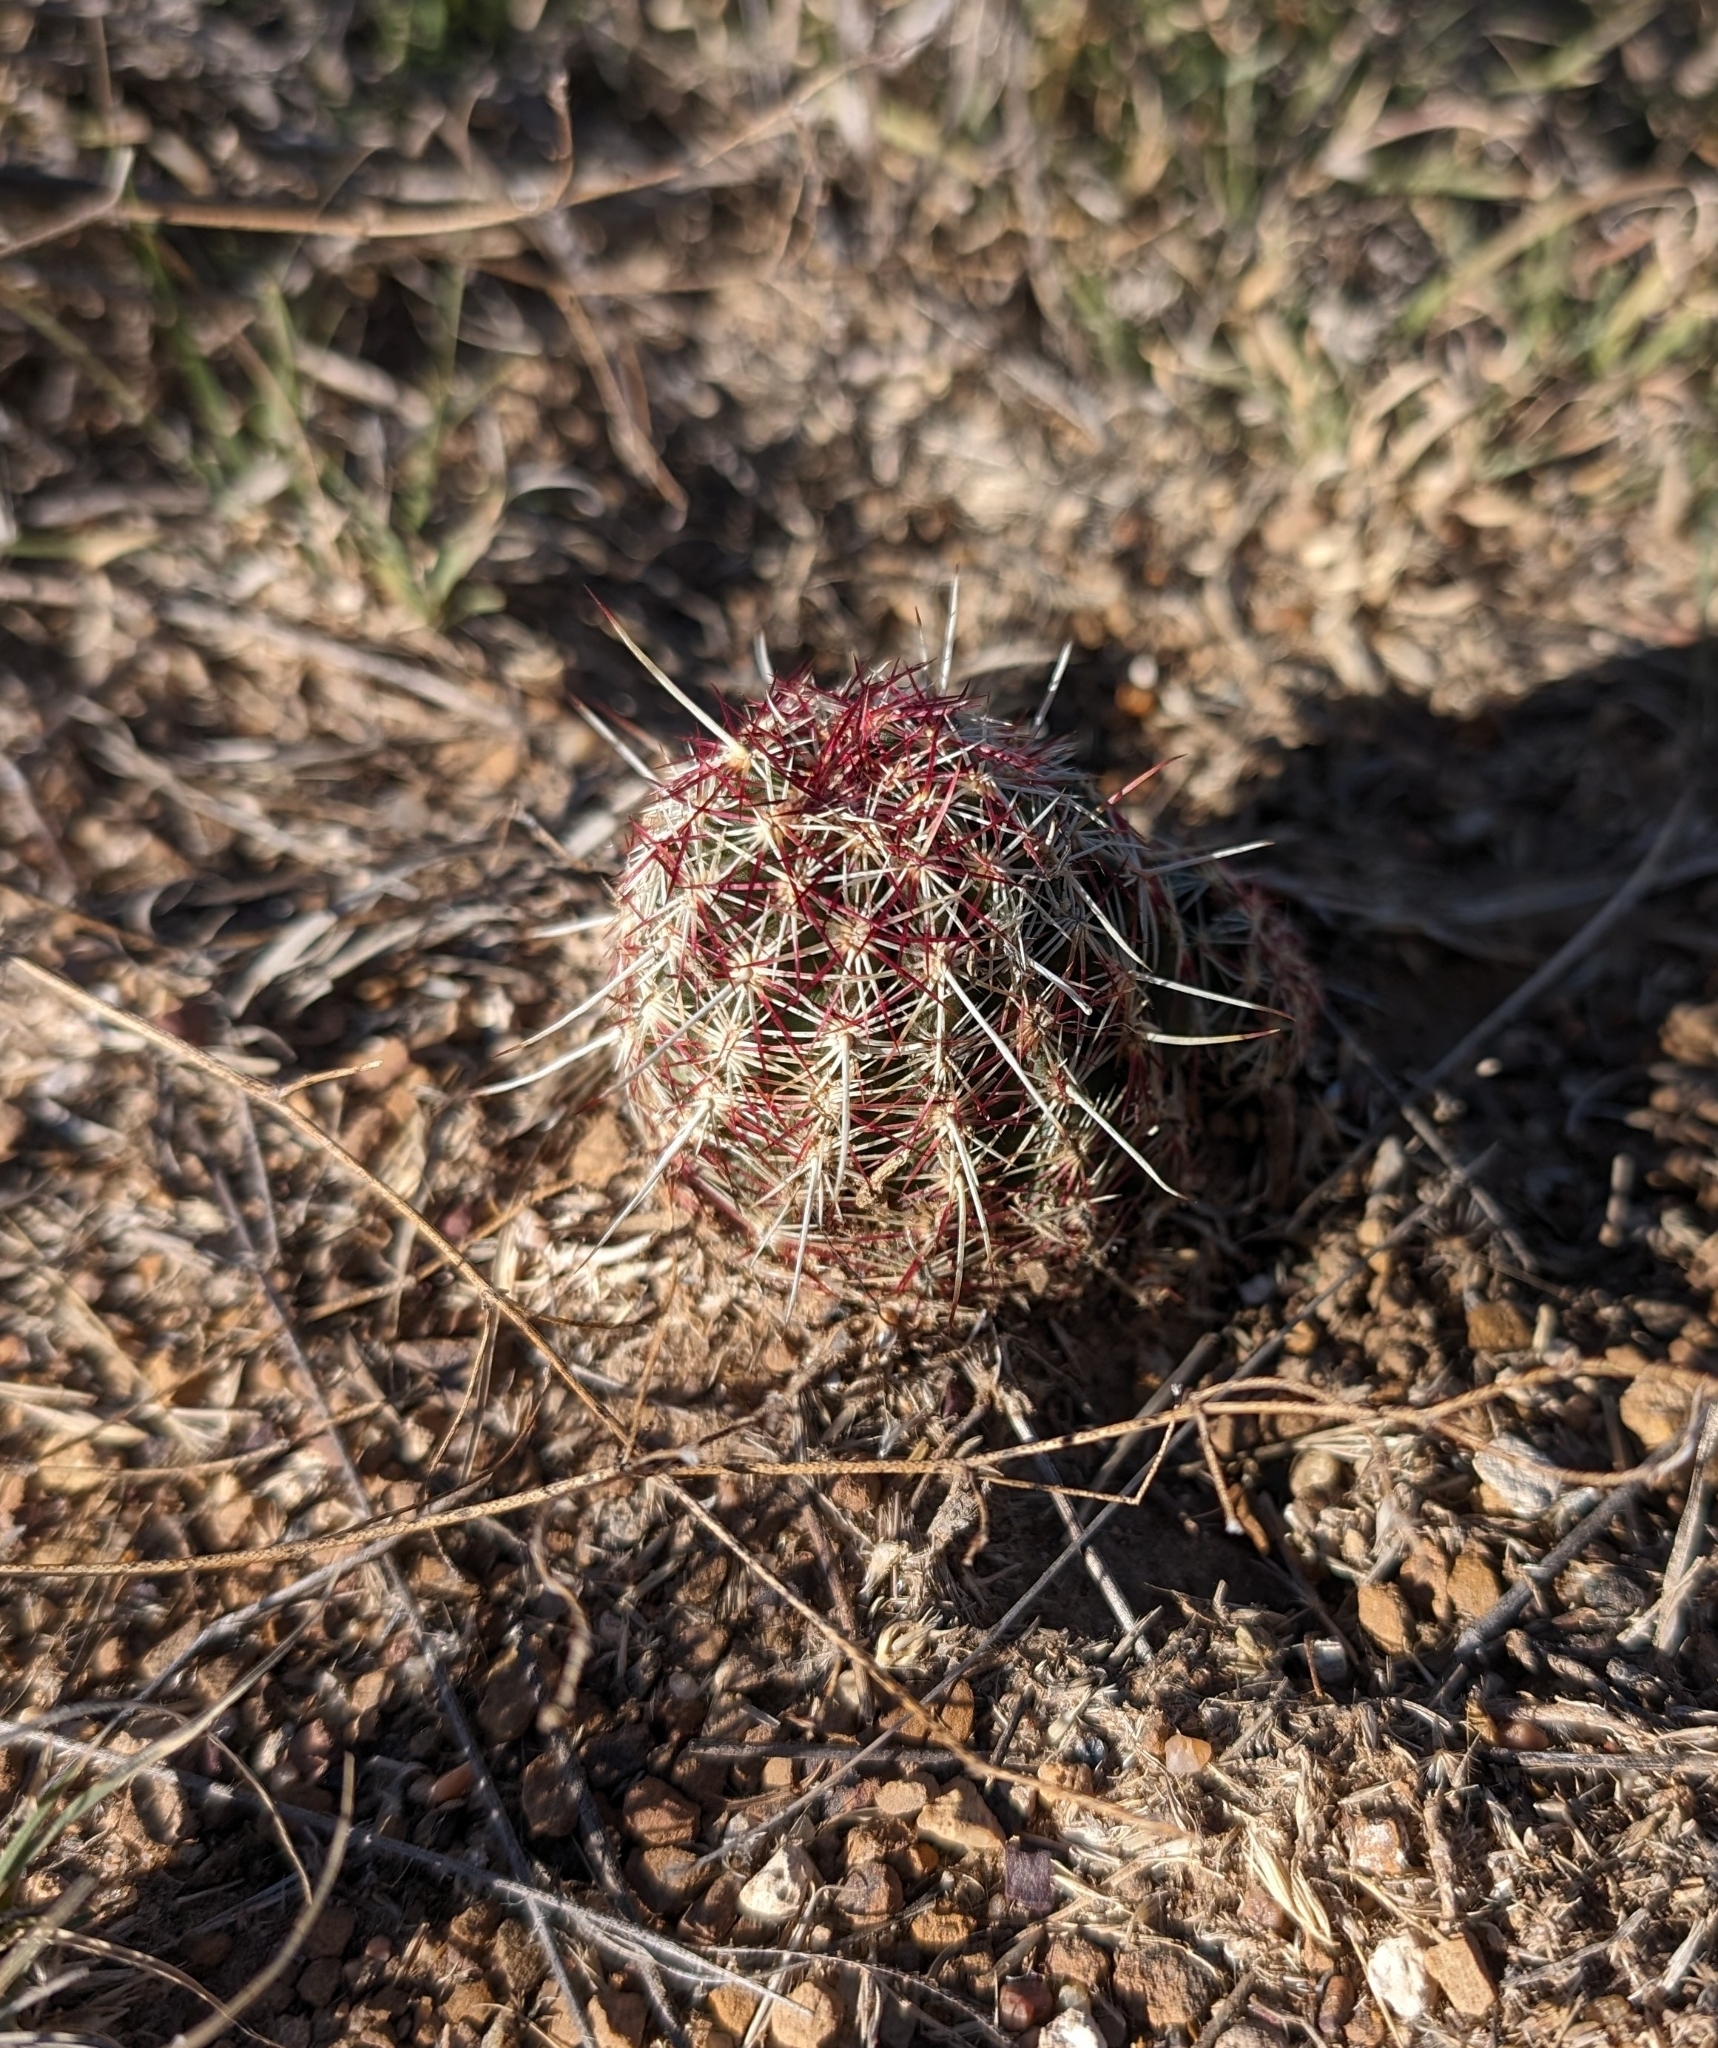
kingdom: Plantae
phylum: Tracheophyta
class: Magnoliopsida
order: Caryophyllales
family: Cactaceae
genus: Echinocereus
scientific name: Echinocereus viridiflorus
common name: Nylon hedgehog cactus
